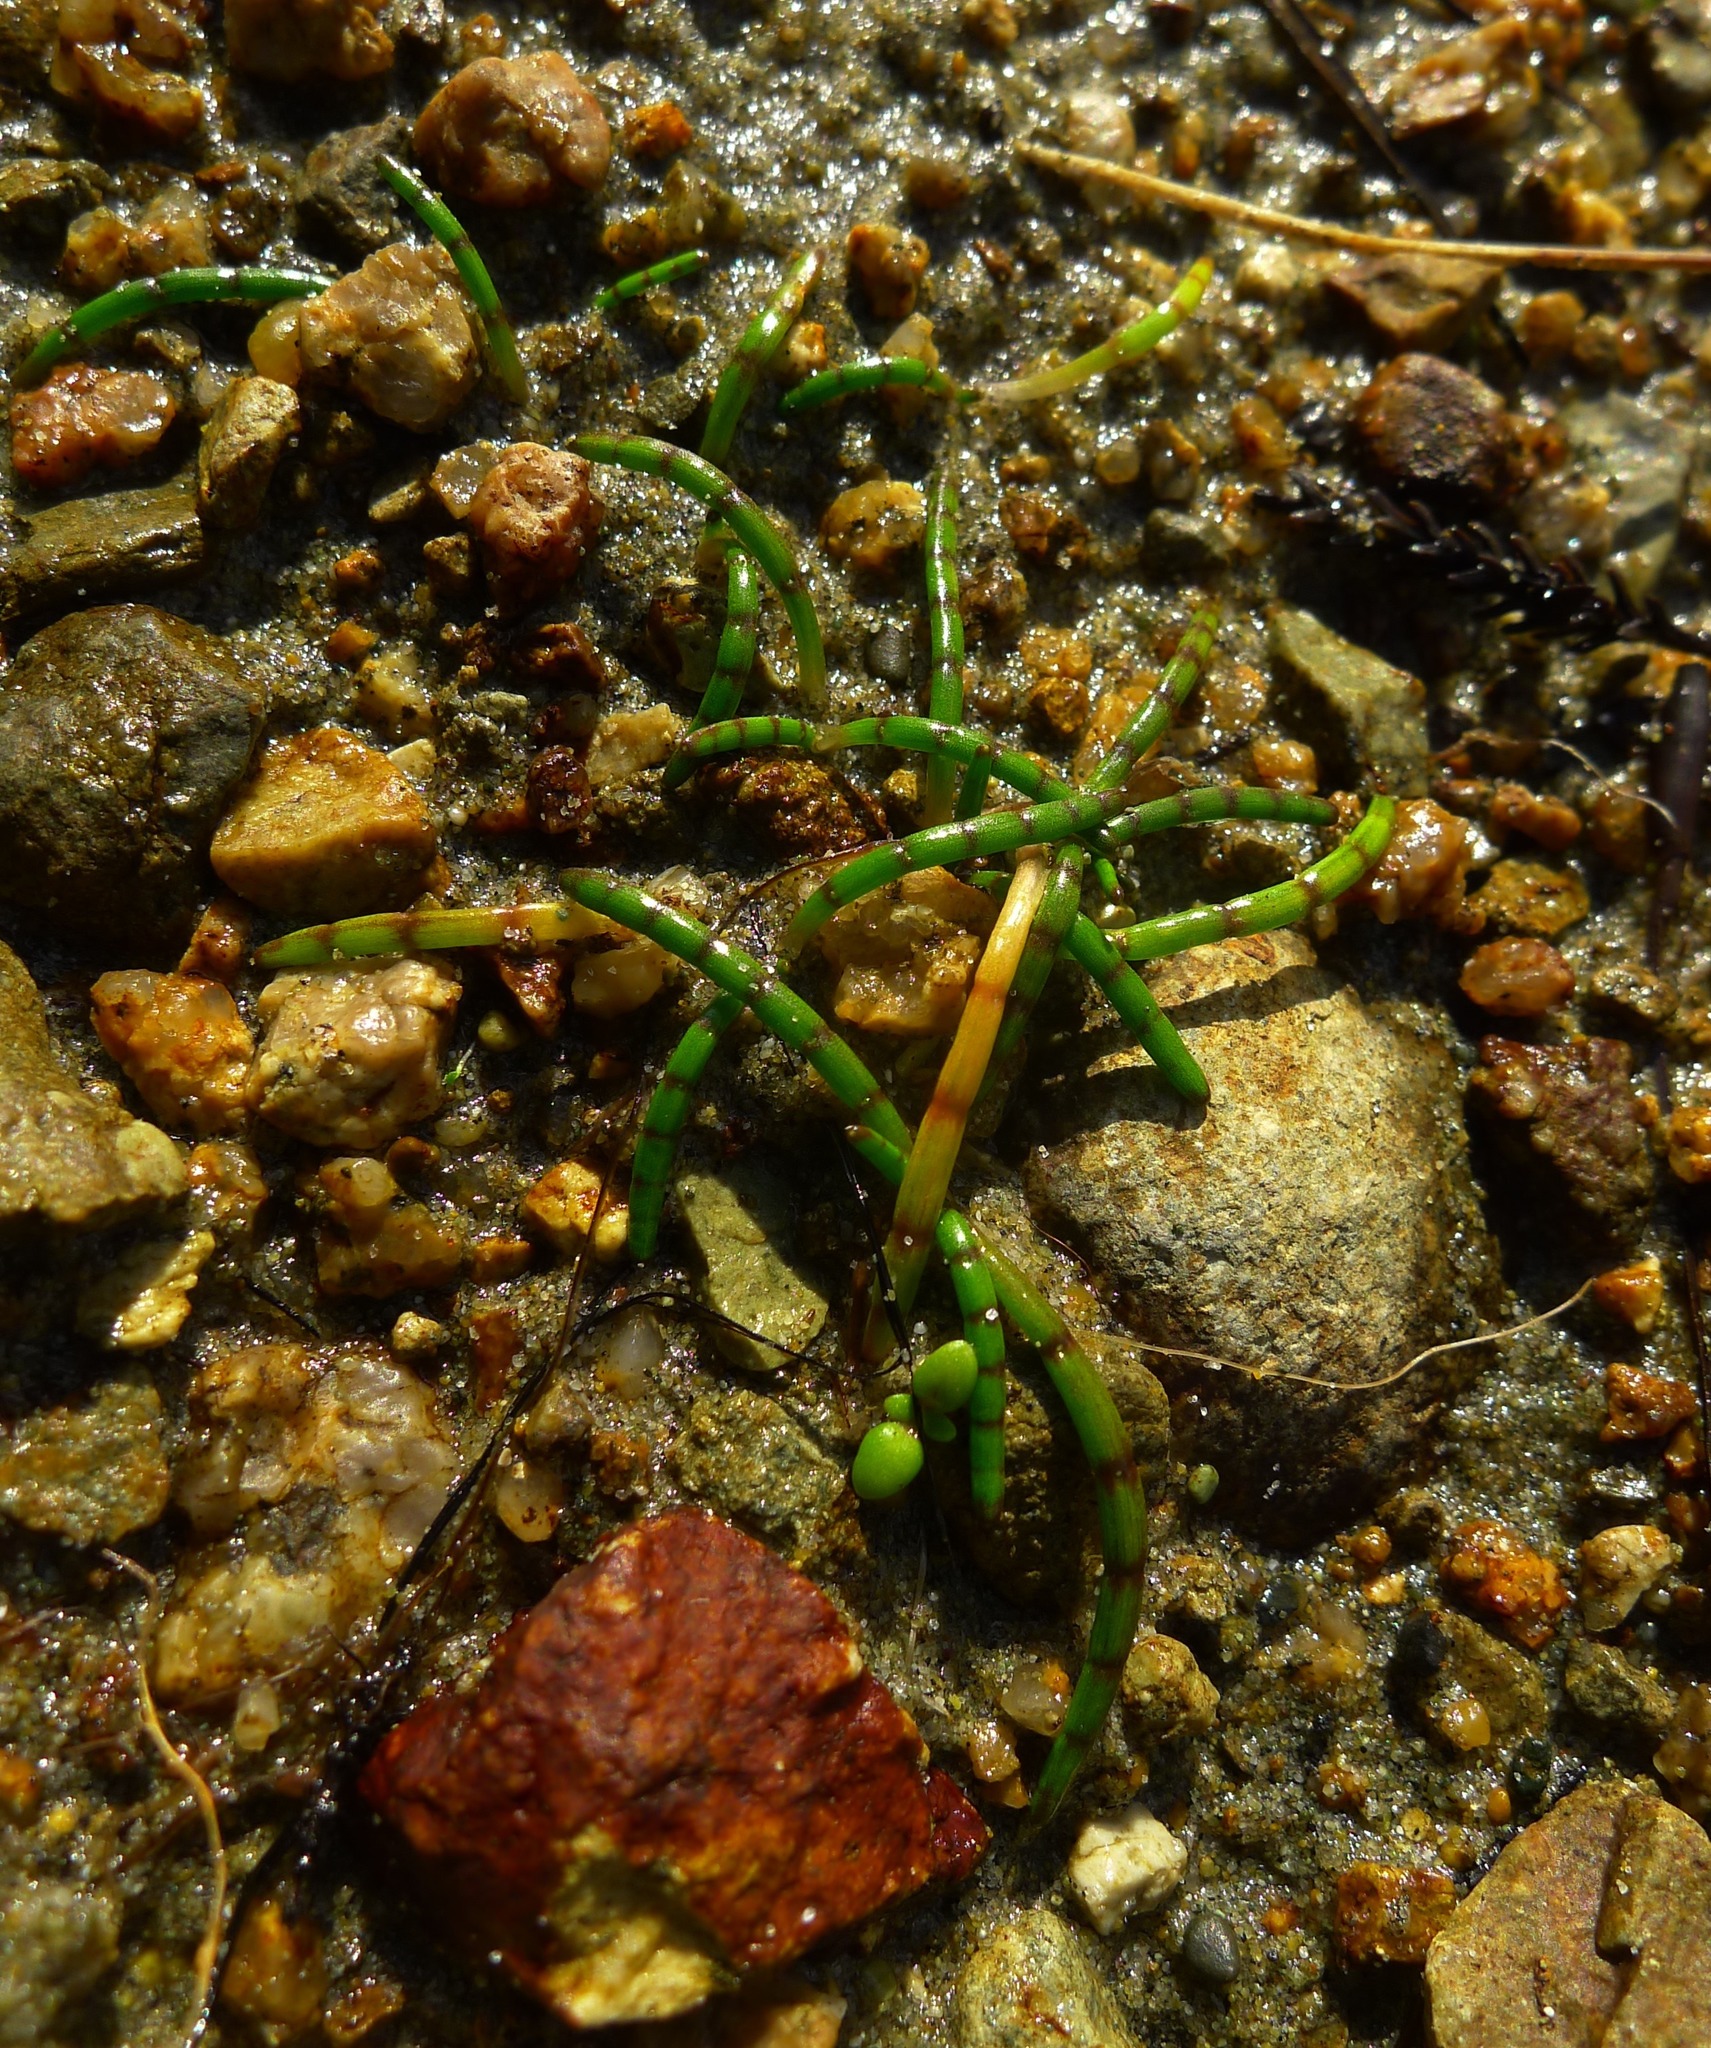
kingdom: Plantae
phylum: Tracheophyta
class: Magnoliopsida
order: Apiales
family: Apiaceae
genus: Lilaeopsis
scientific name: Lilaeopsis novae-zelandiae
